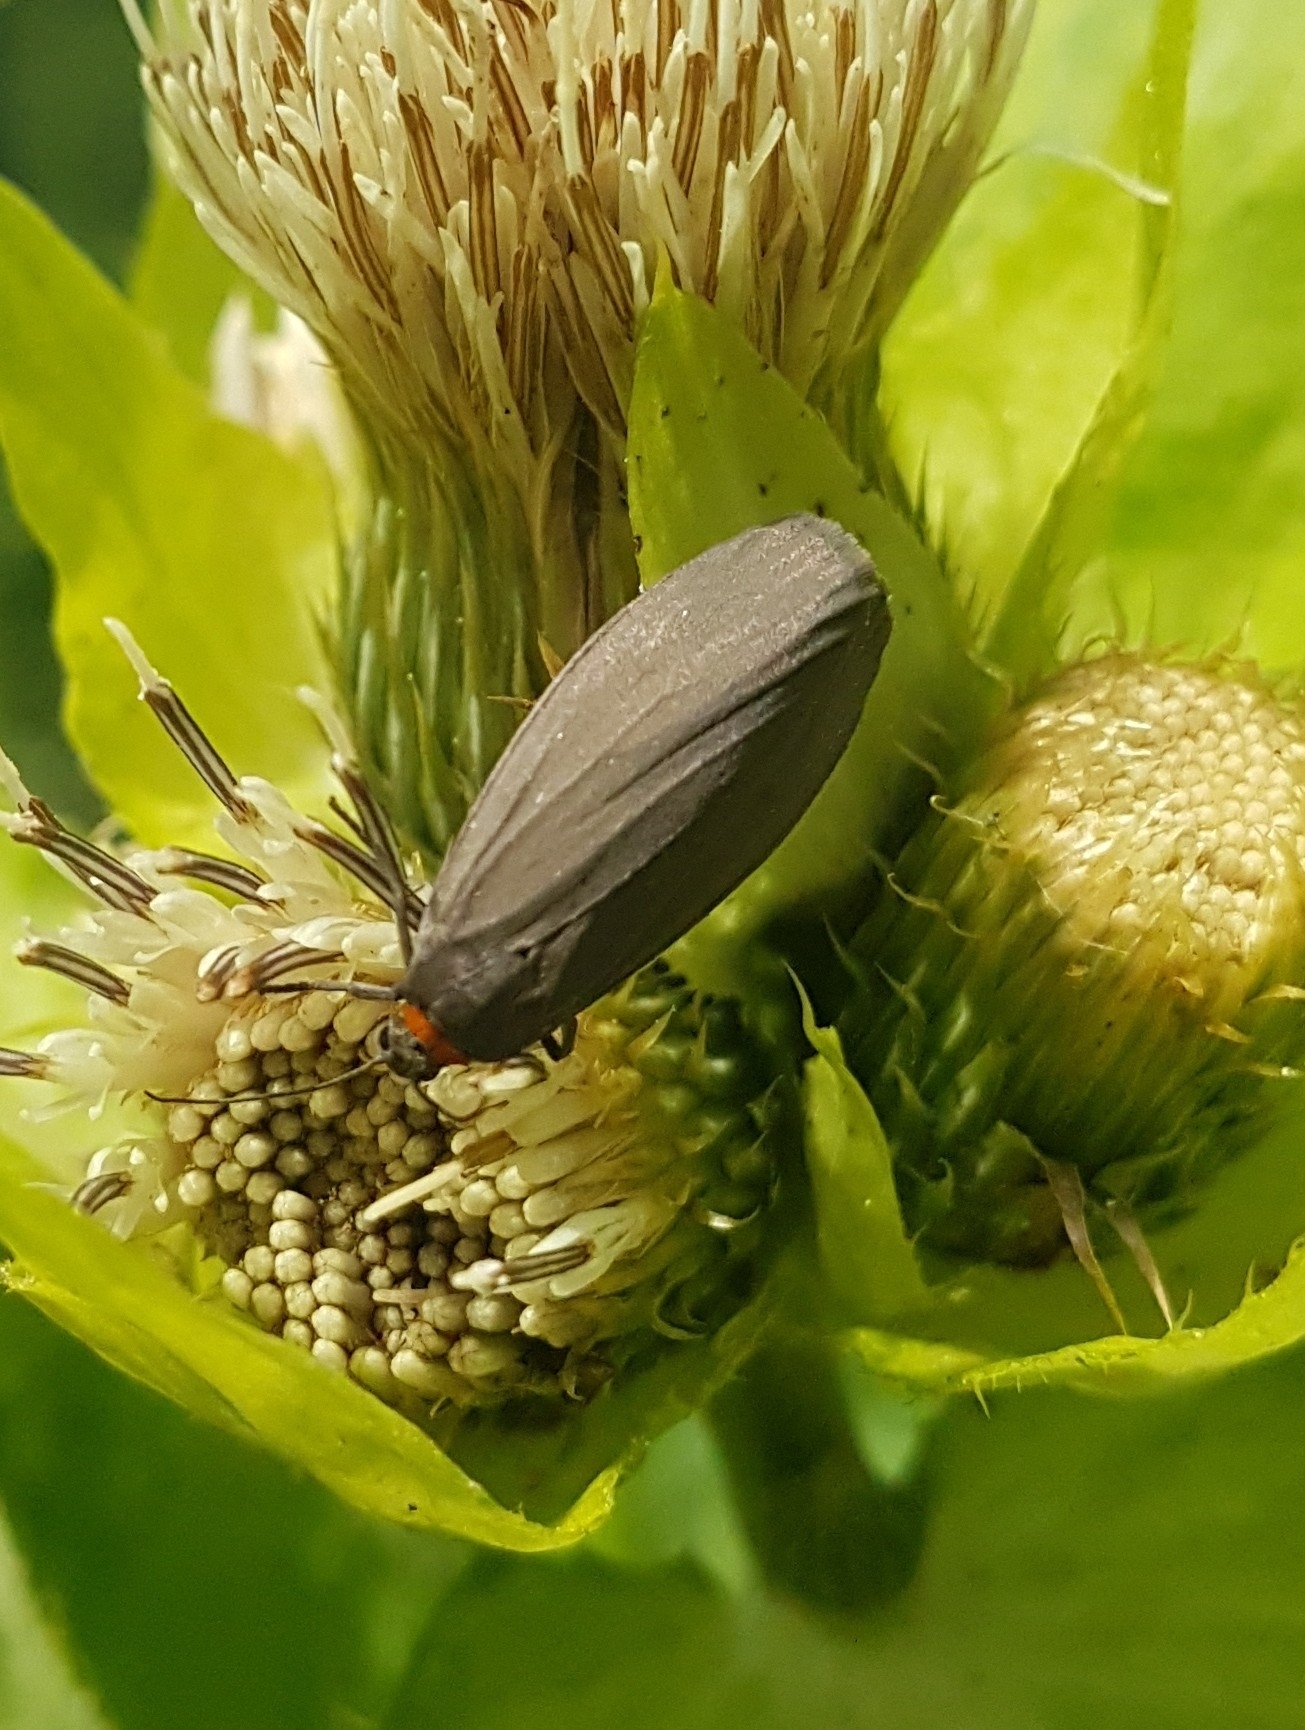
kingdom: Animalia
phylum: Arthropoda
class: Insecta
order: Lepidoptera
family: Erebidae
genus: Atolmis
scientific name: Atolmis rubricollis
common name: Red-necked footman
